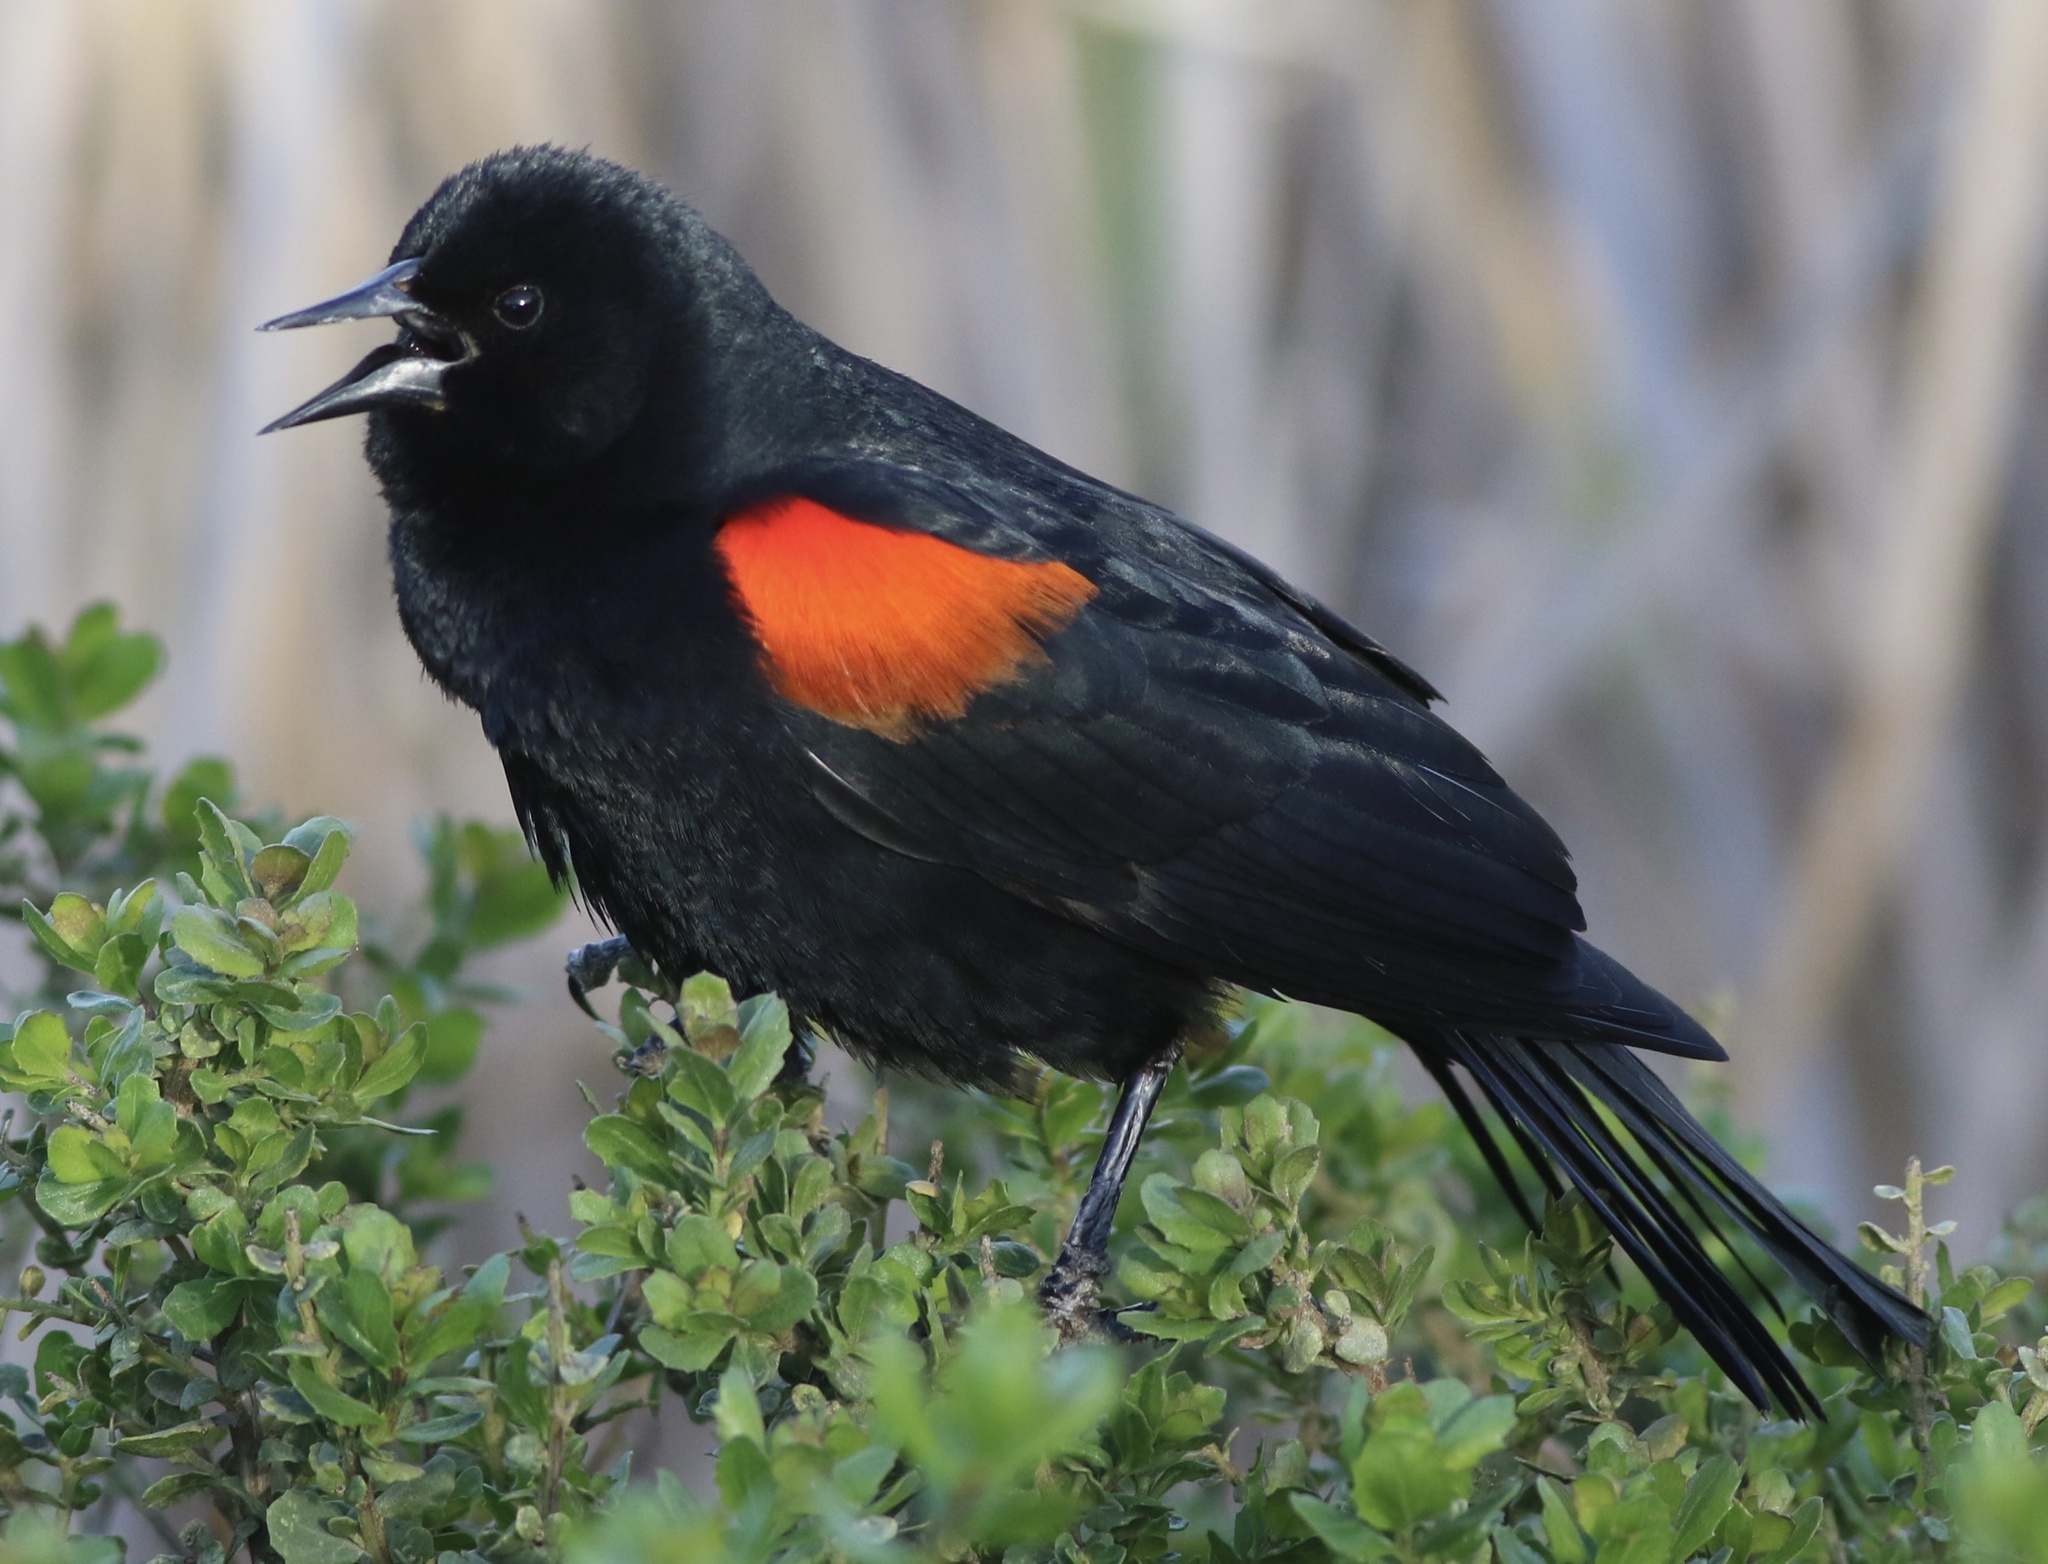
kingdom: Animalia
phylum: Chordata
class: Aves
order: Passeriformes
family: Icteridae
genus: Agelaius
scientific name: Agelaius phoeniceus
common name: Red-winged blackbird
